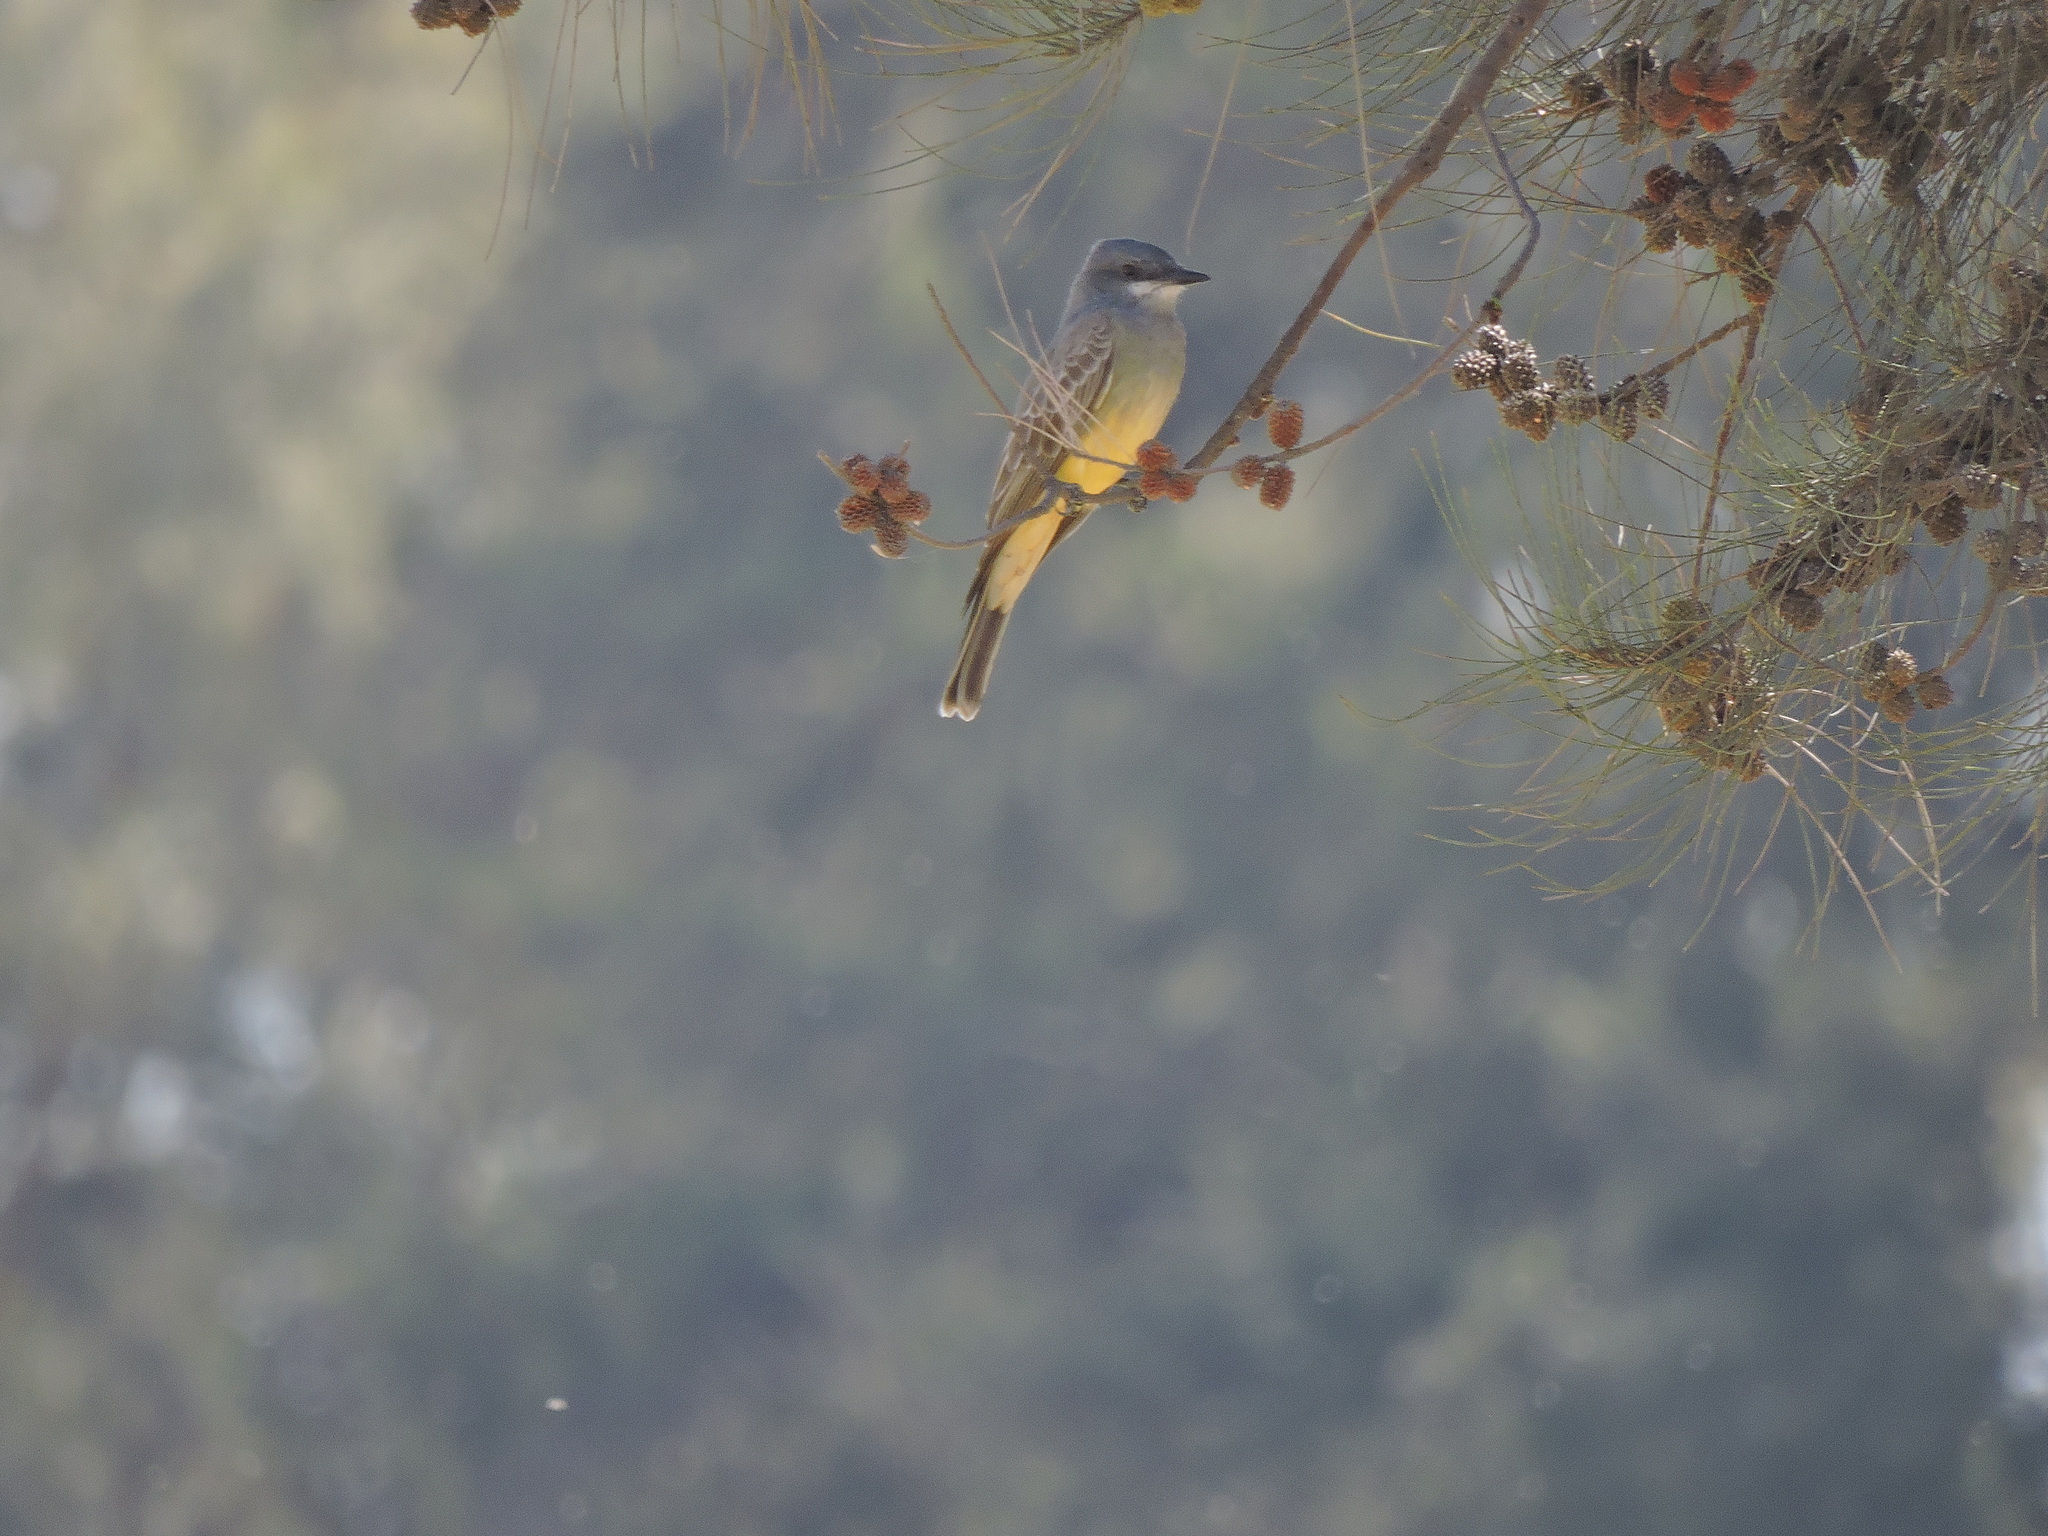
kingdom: Animalia
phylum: Chordata
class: Aves
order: Passeriformes
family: Tyrannidae
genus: Tyrannus
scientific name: Tyrannus vociferans
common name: Cassin's kingbird
